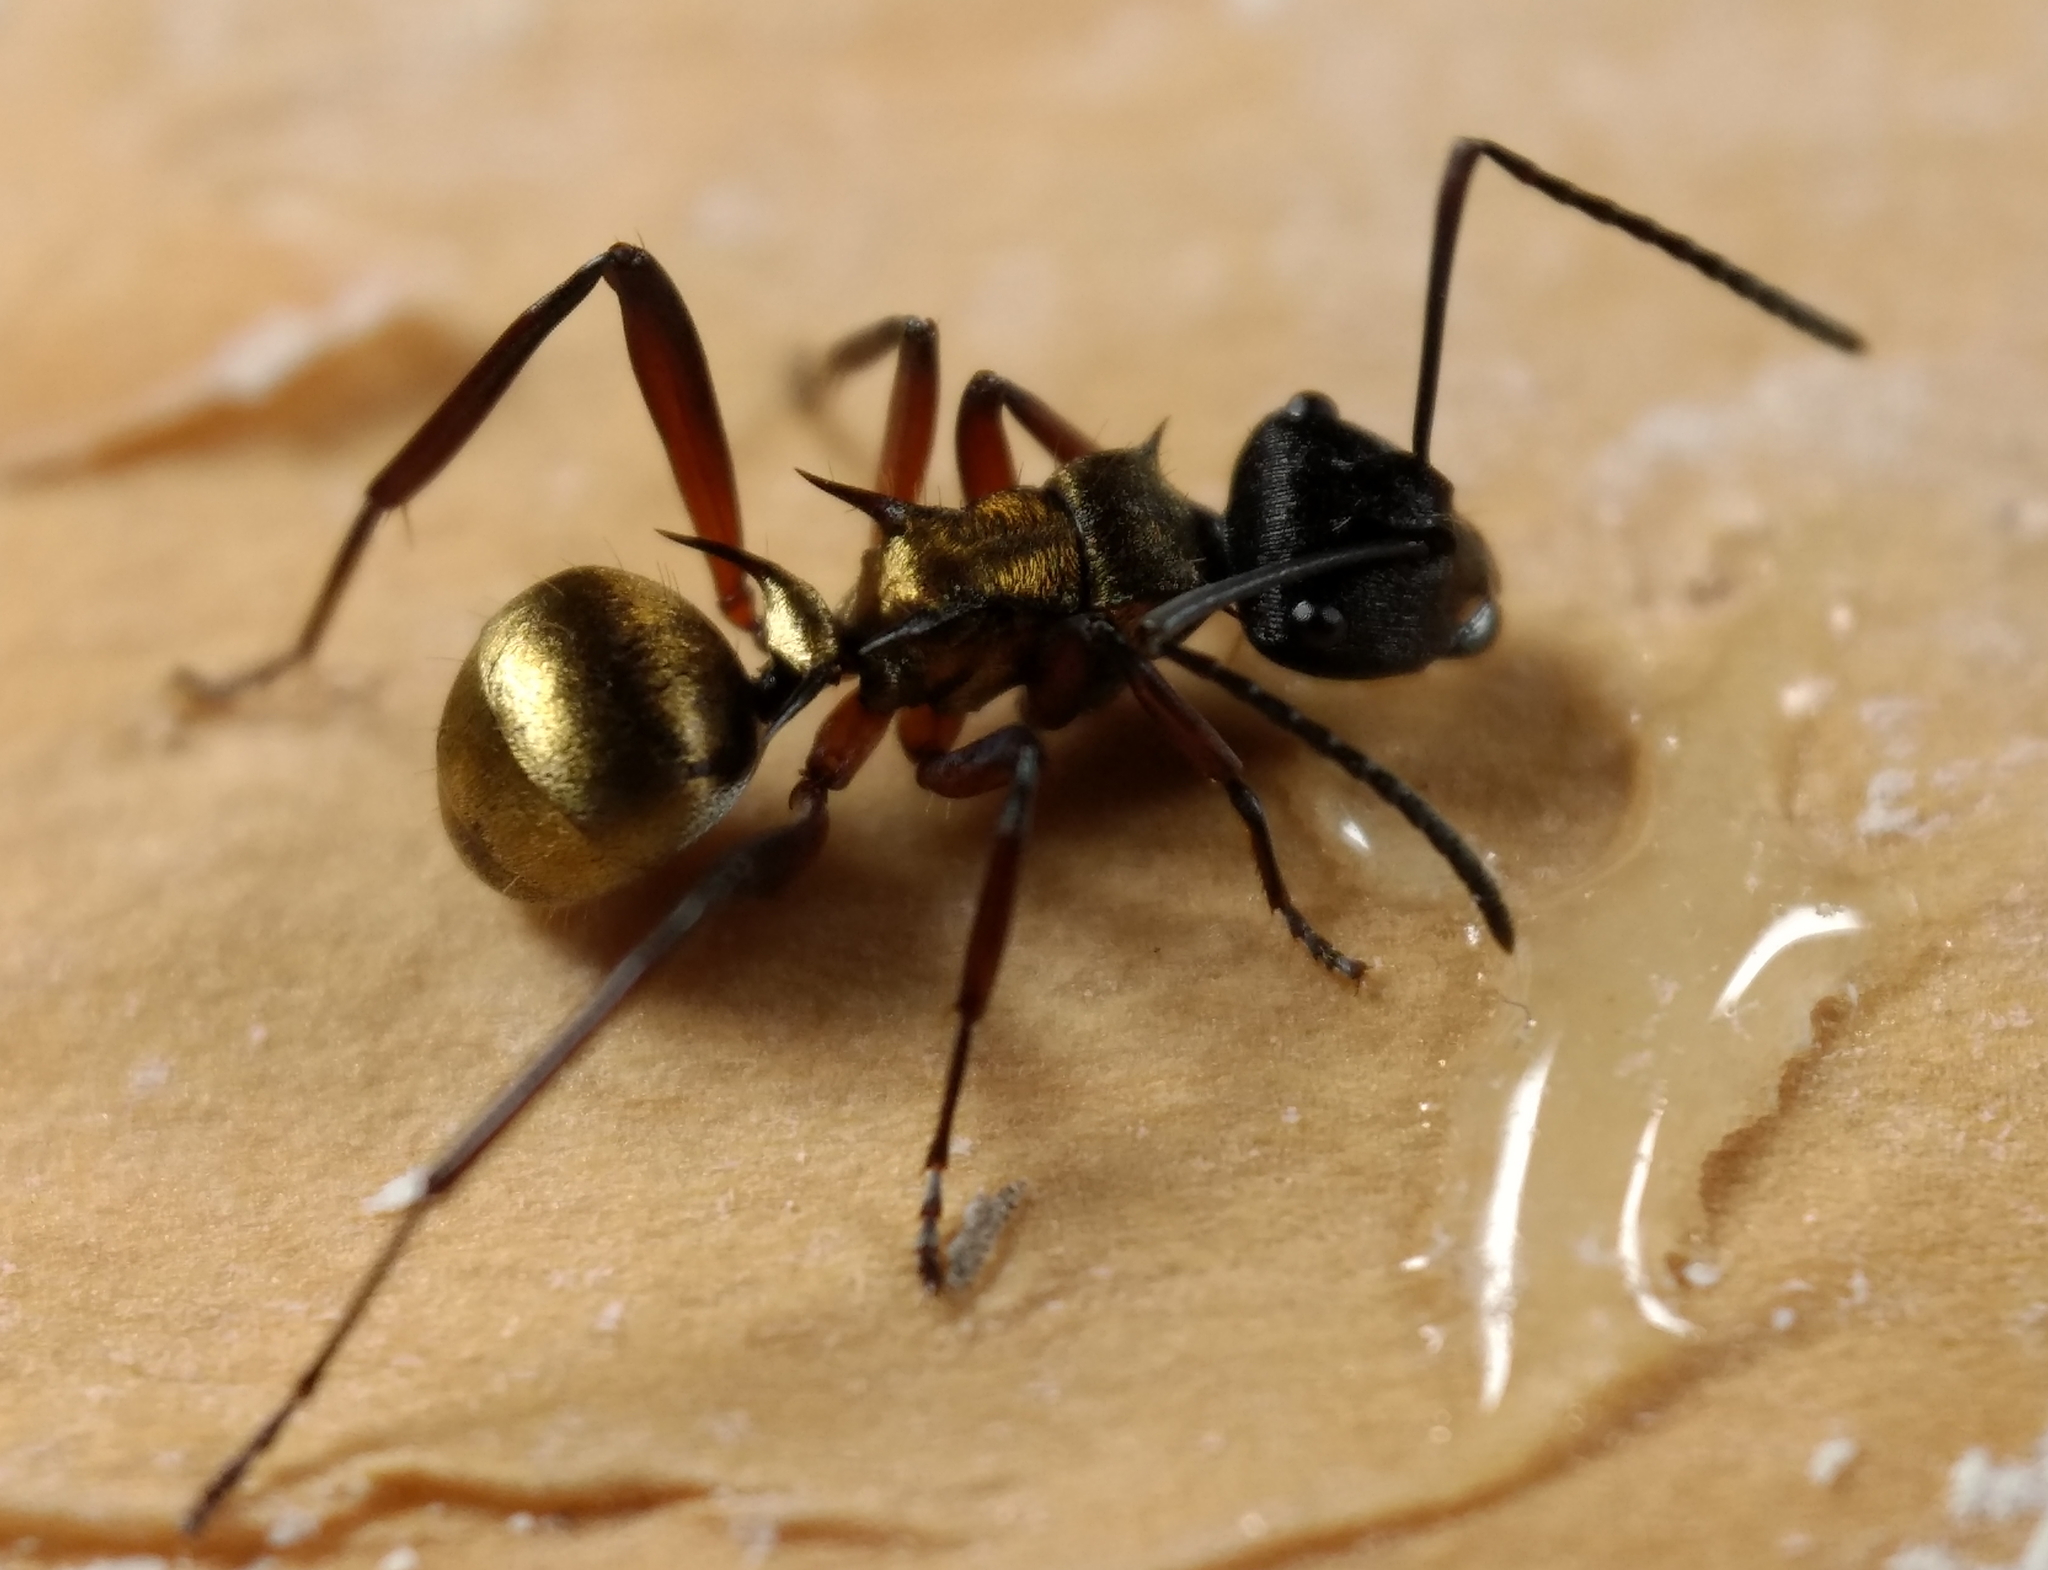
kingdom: Animalia
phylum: Arthropoda
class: Insecta
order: Hymenoptera
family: Formicidae
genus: Polyrhachis
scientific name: Polyrhachis rufifemur
